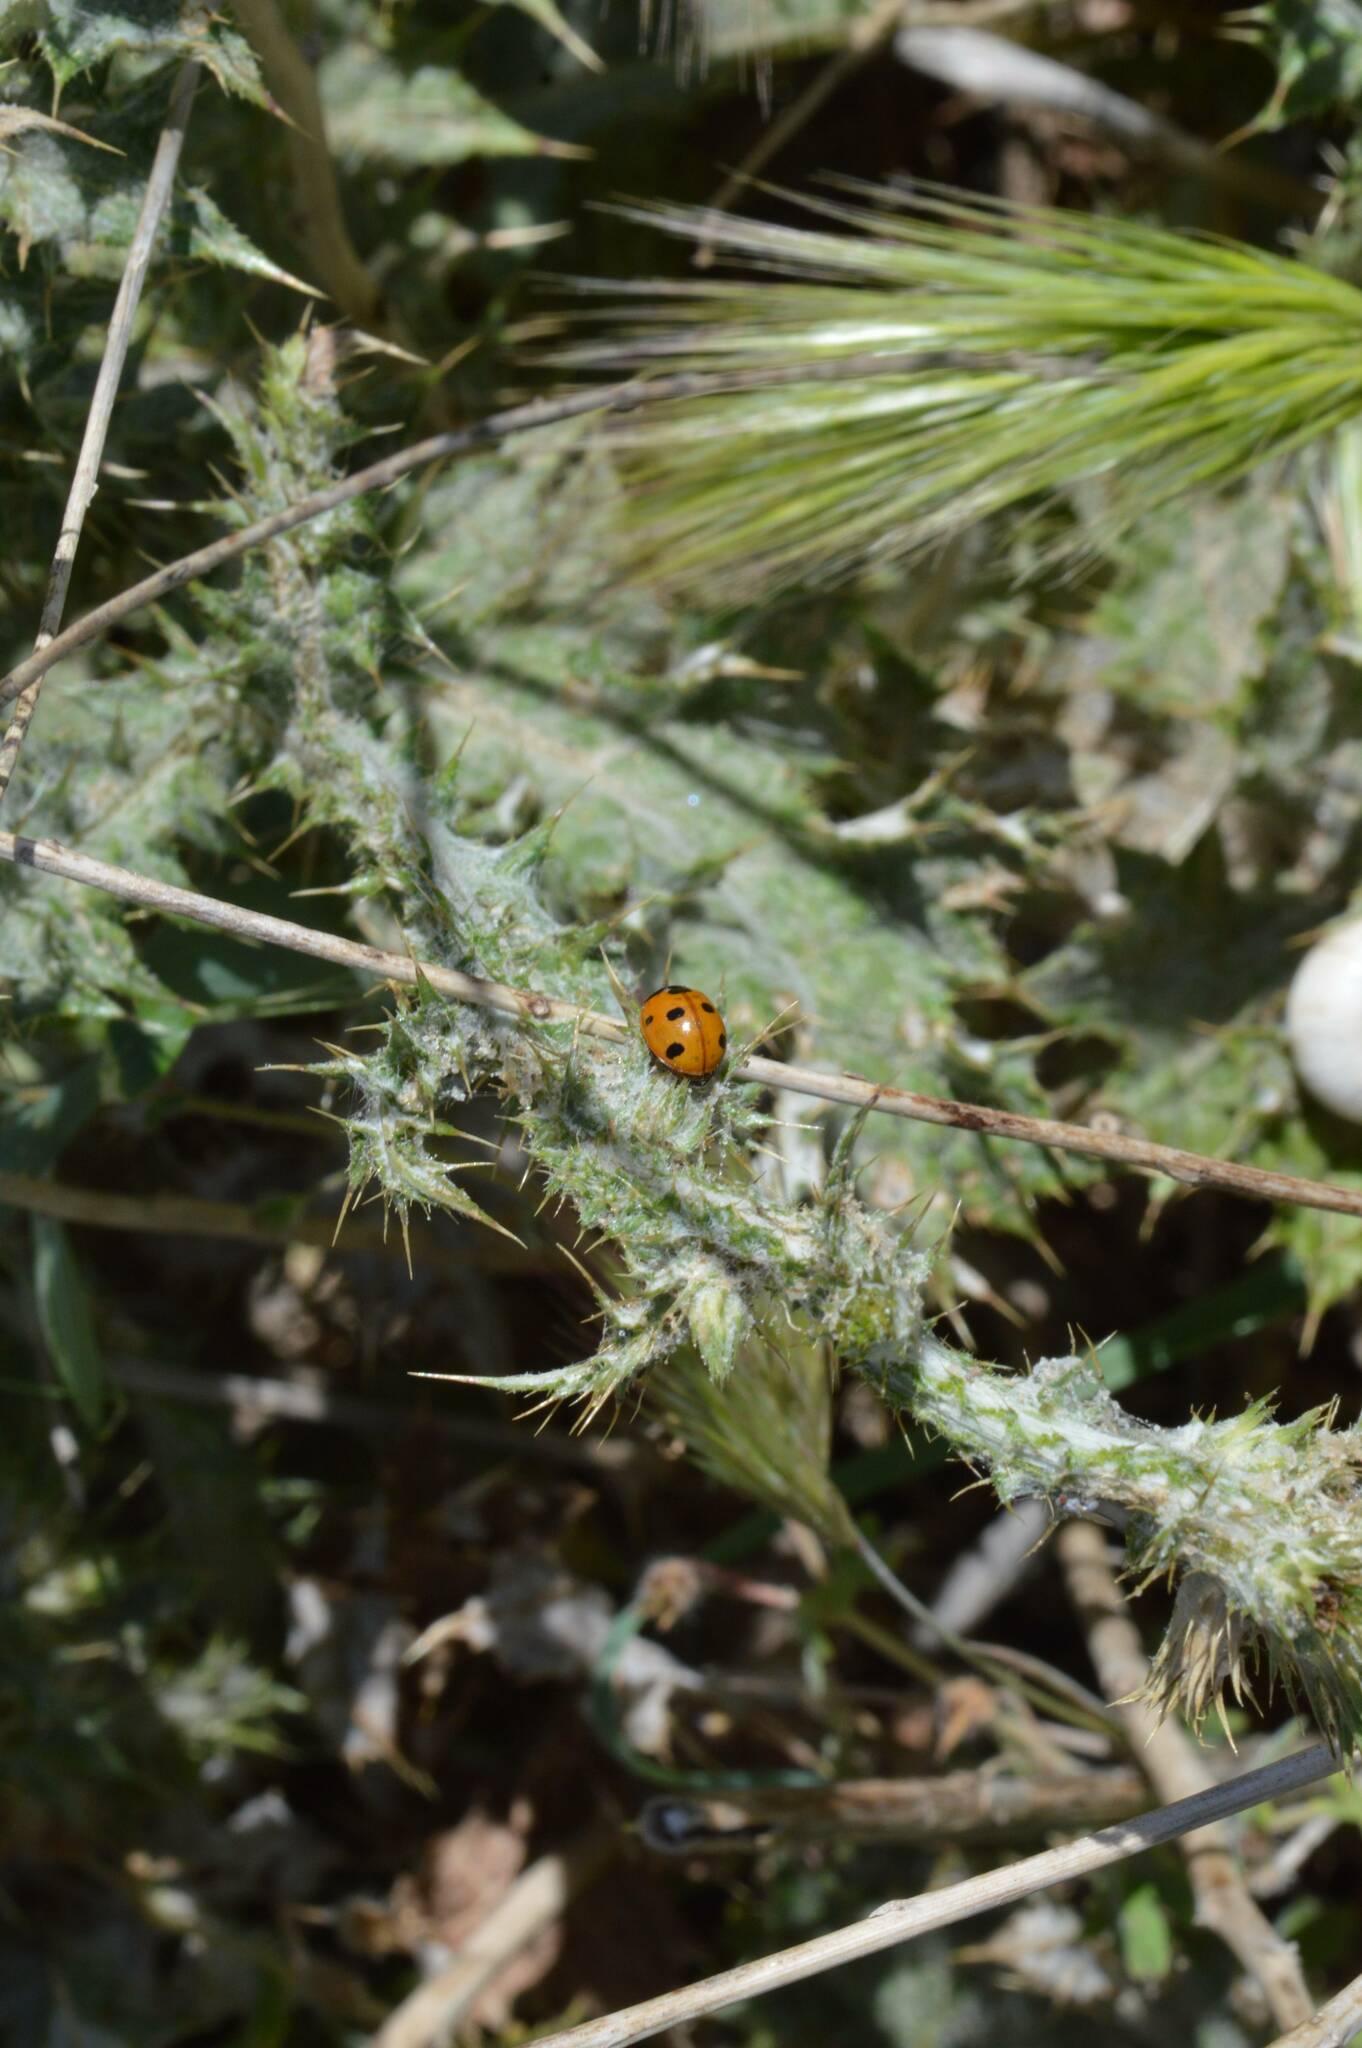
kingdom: Animalia
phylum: Arthropoda
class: Insecta
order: Coleoptera
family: Coccinellidae
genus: Coccinella
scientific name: Coccinella algerica
